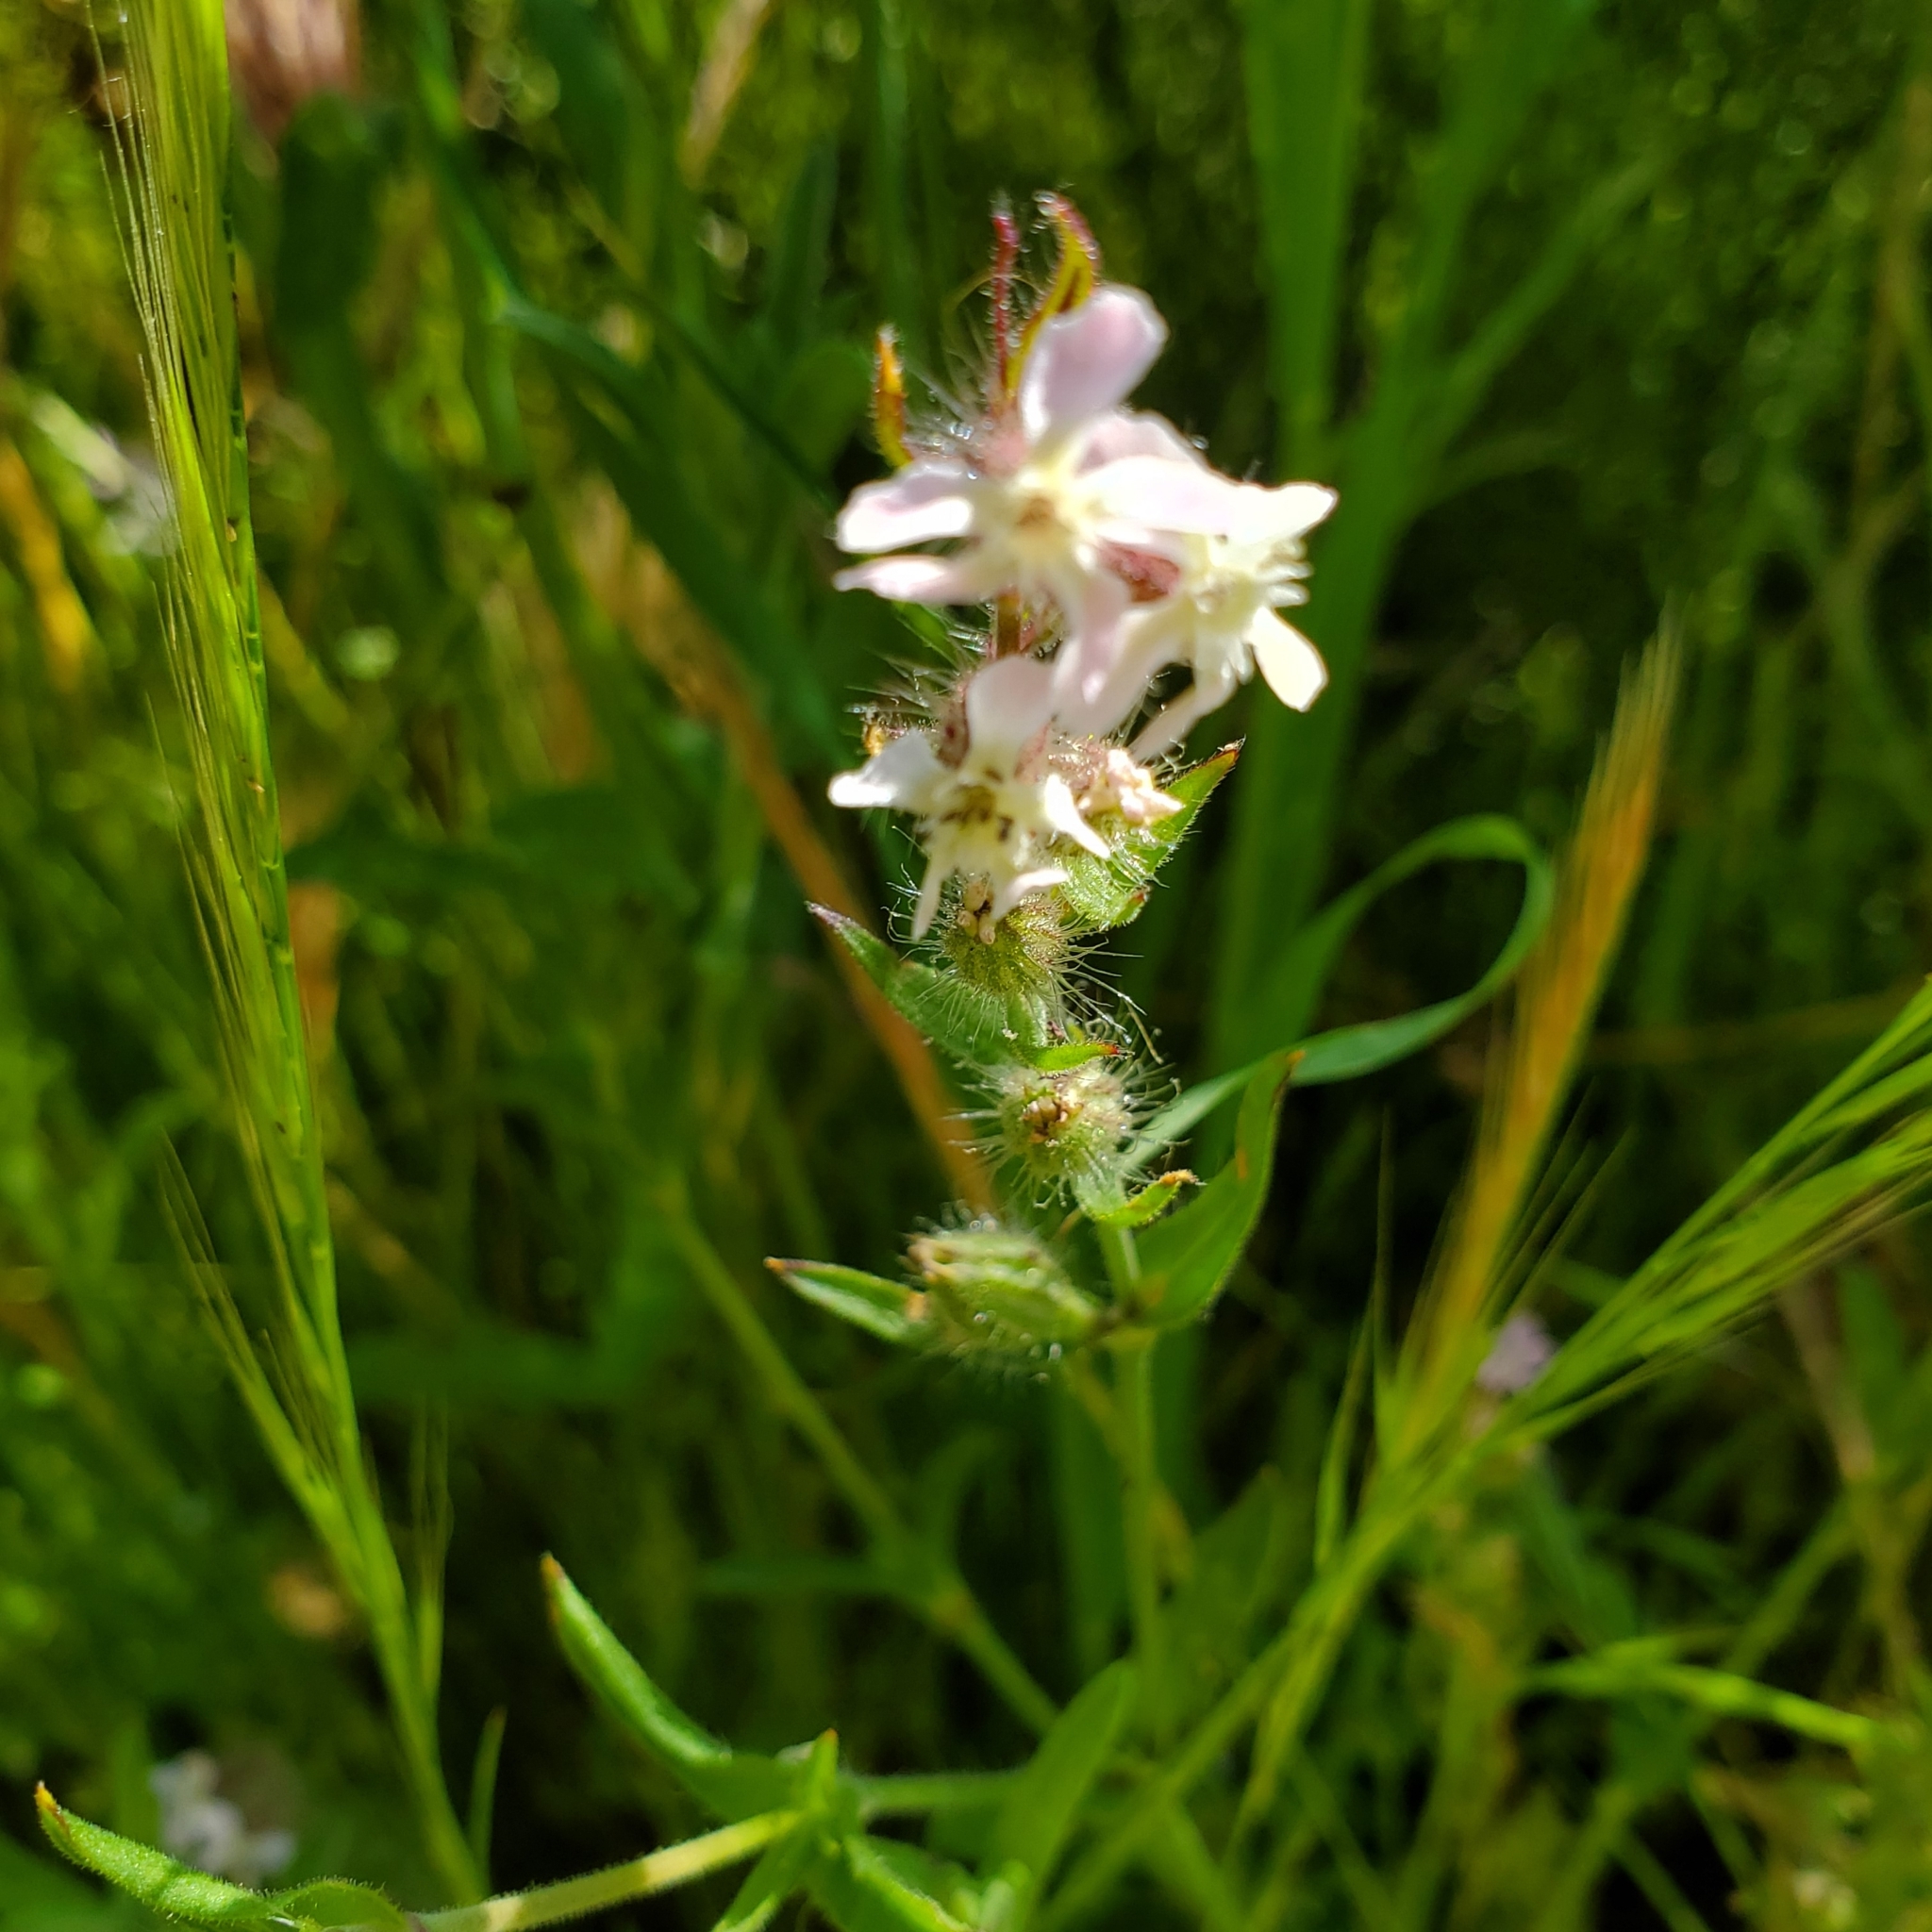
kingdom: Plantae
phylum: Tracheophyta
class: Magnoliopsida
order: Caryophyllales
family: Caryophyllaceae
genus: Silene
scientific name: Silene gallica
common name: Small-flowered catchfly
